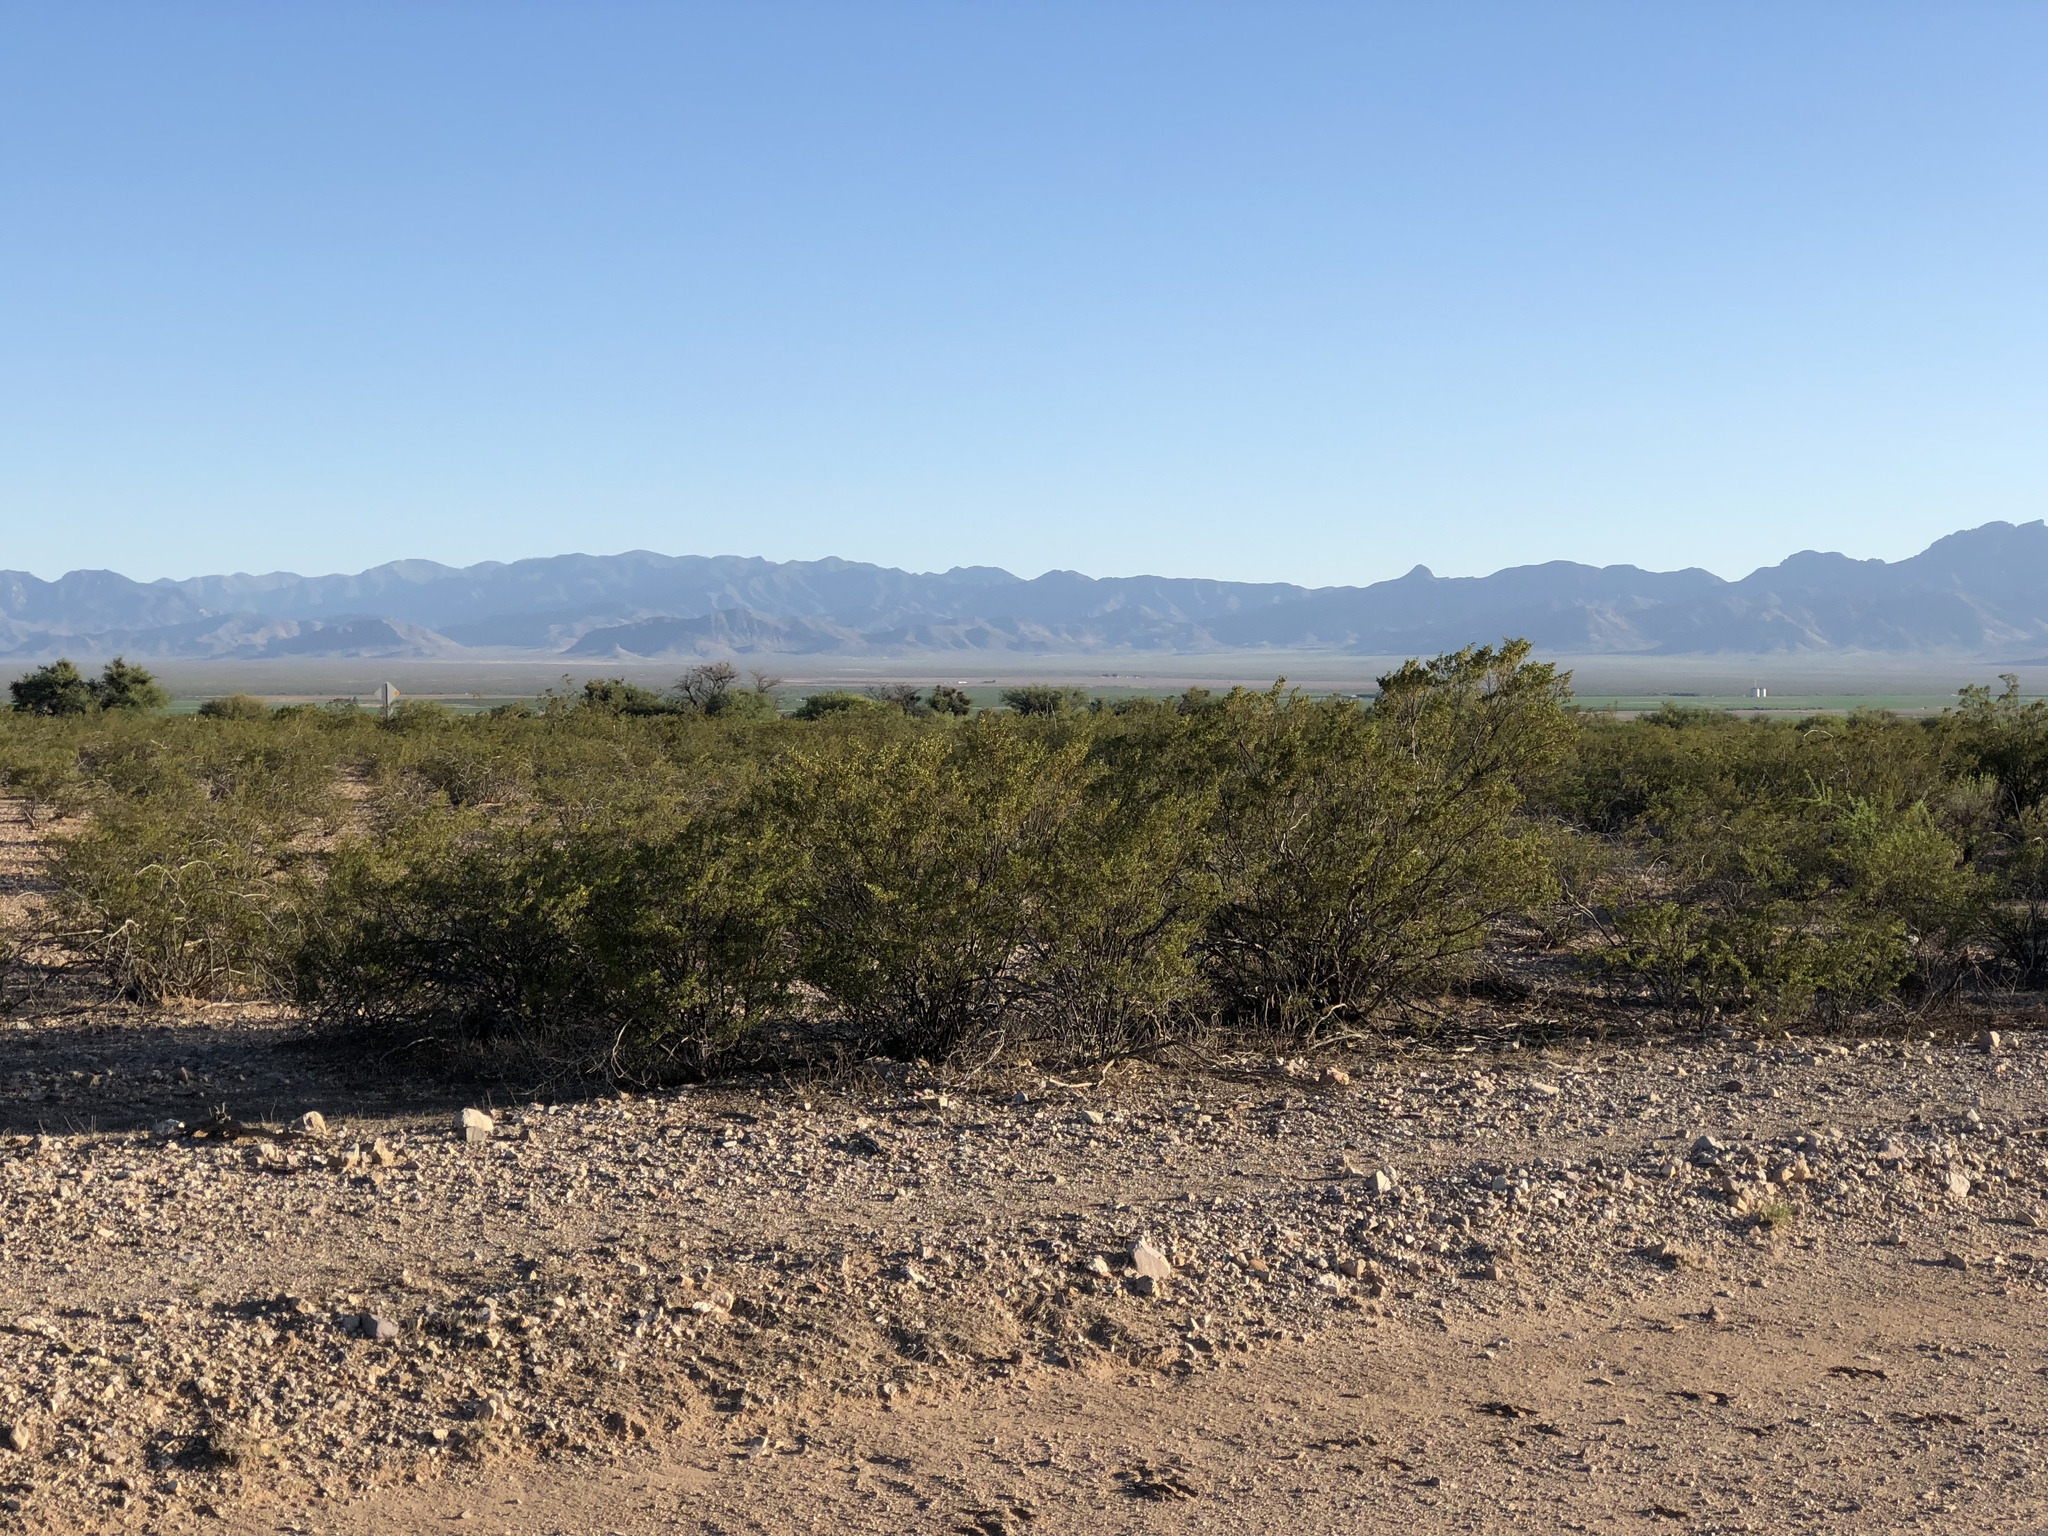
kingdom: Plantae
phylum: Tracheophyta
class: Magnoliopsida
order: Zygophyllales
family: Zygophyllaceae
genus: Larrea
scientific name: Larrea tridentata
